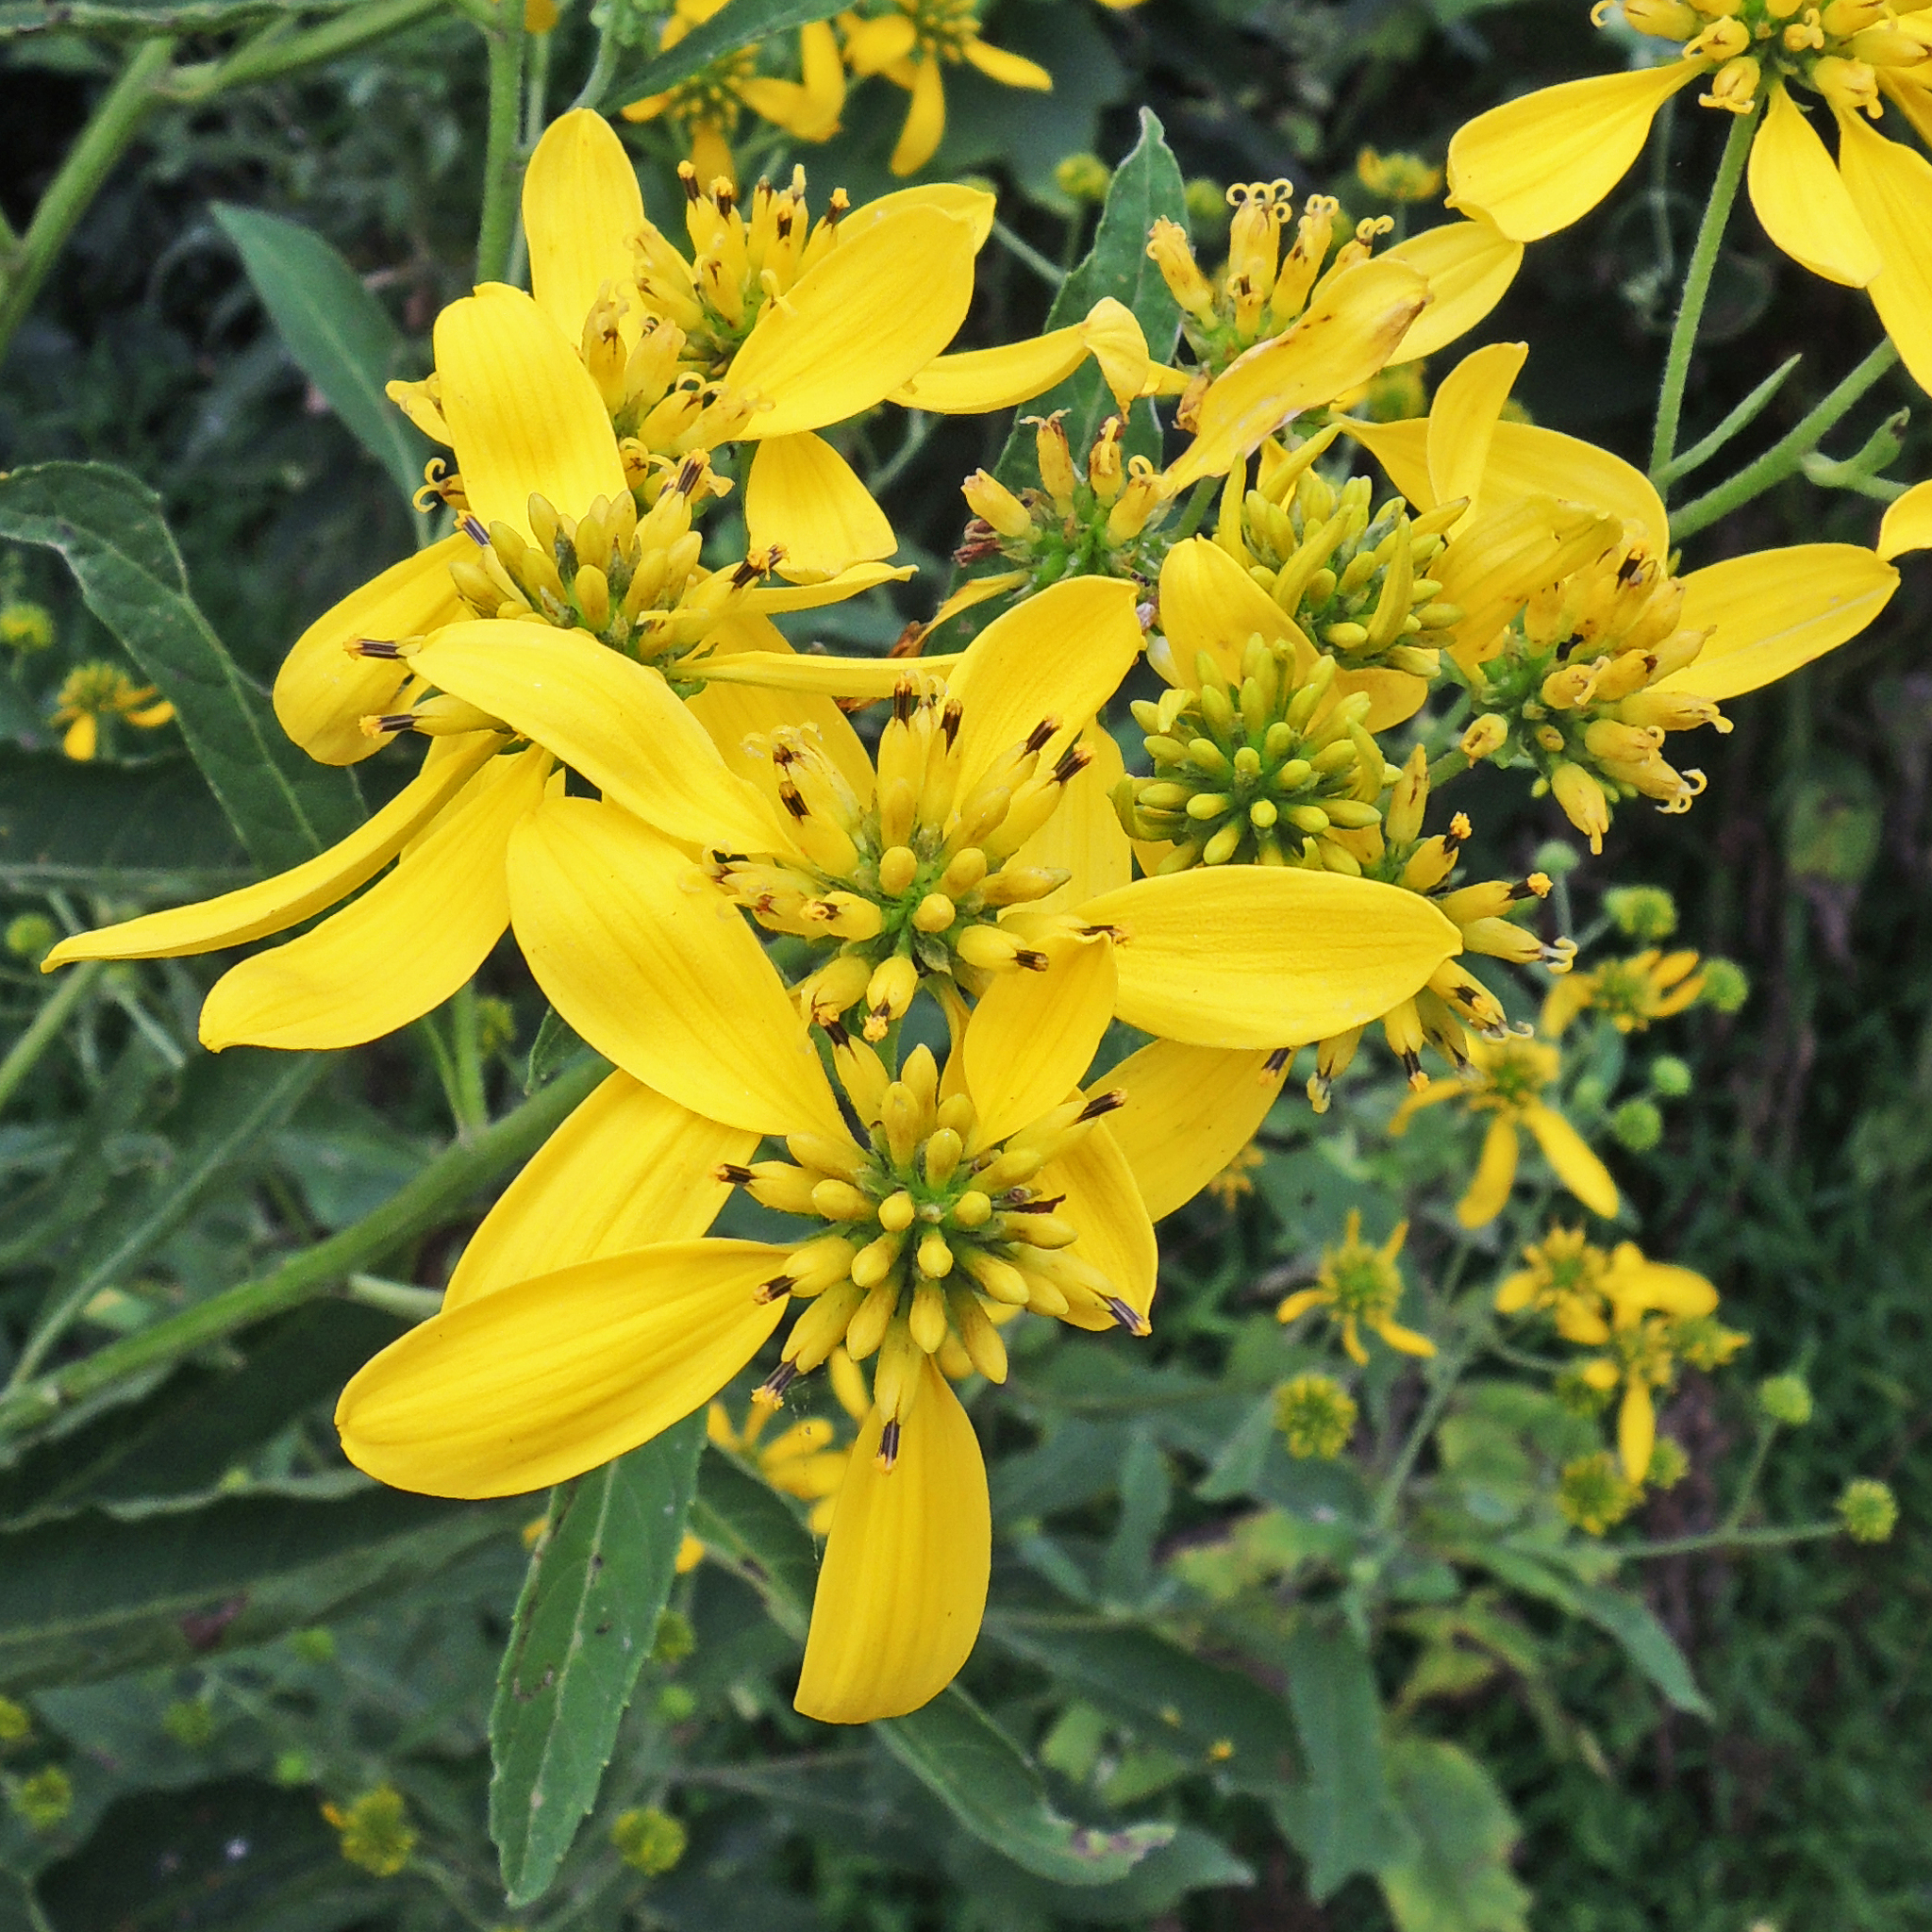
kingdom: Plantae
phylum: Tracheophyta
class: Magnoliopsida
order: Asterales
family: Asteraceae
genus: Verbesina
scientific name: Verbesina alternifolia
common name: Wingstem
